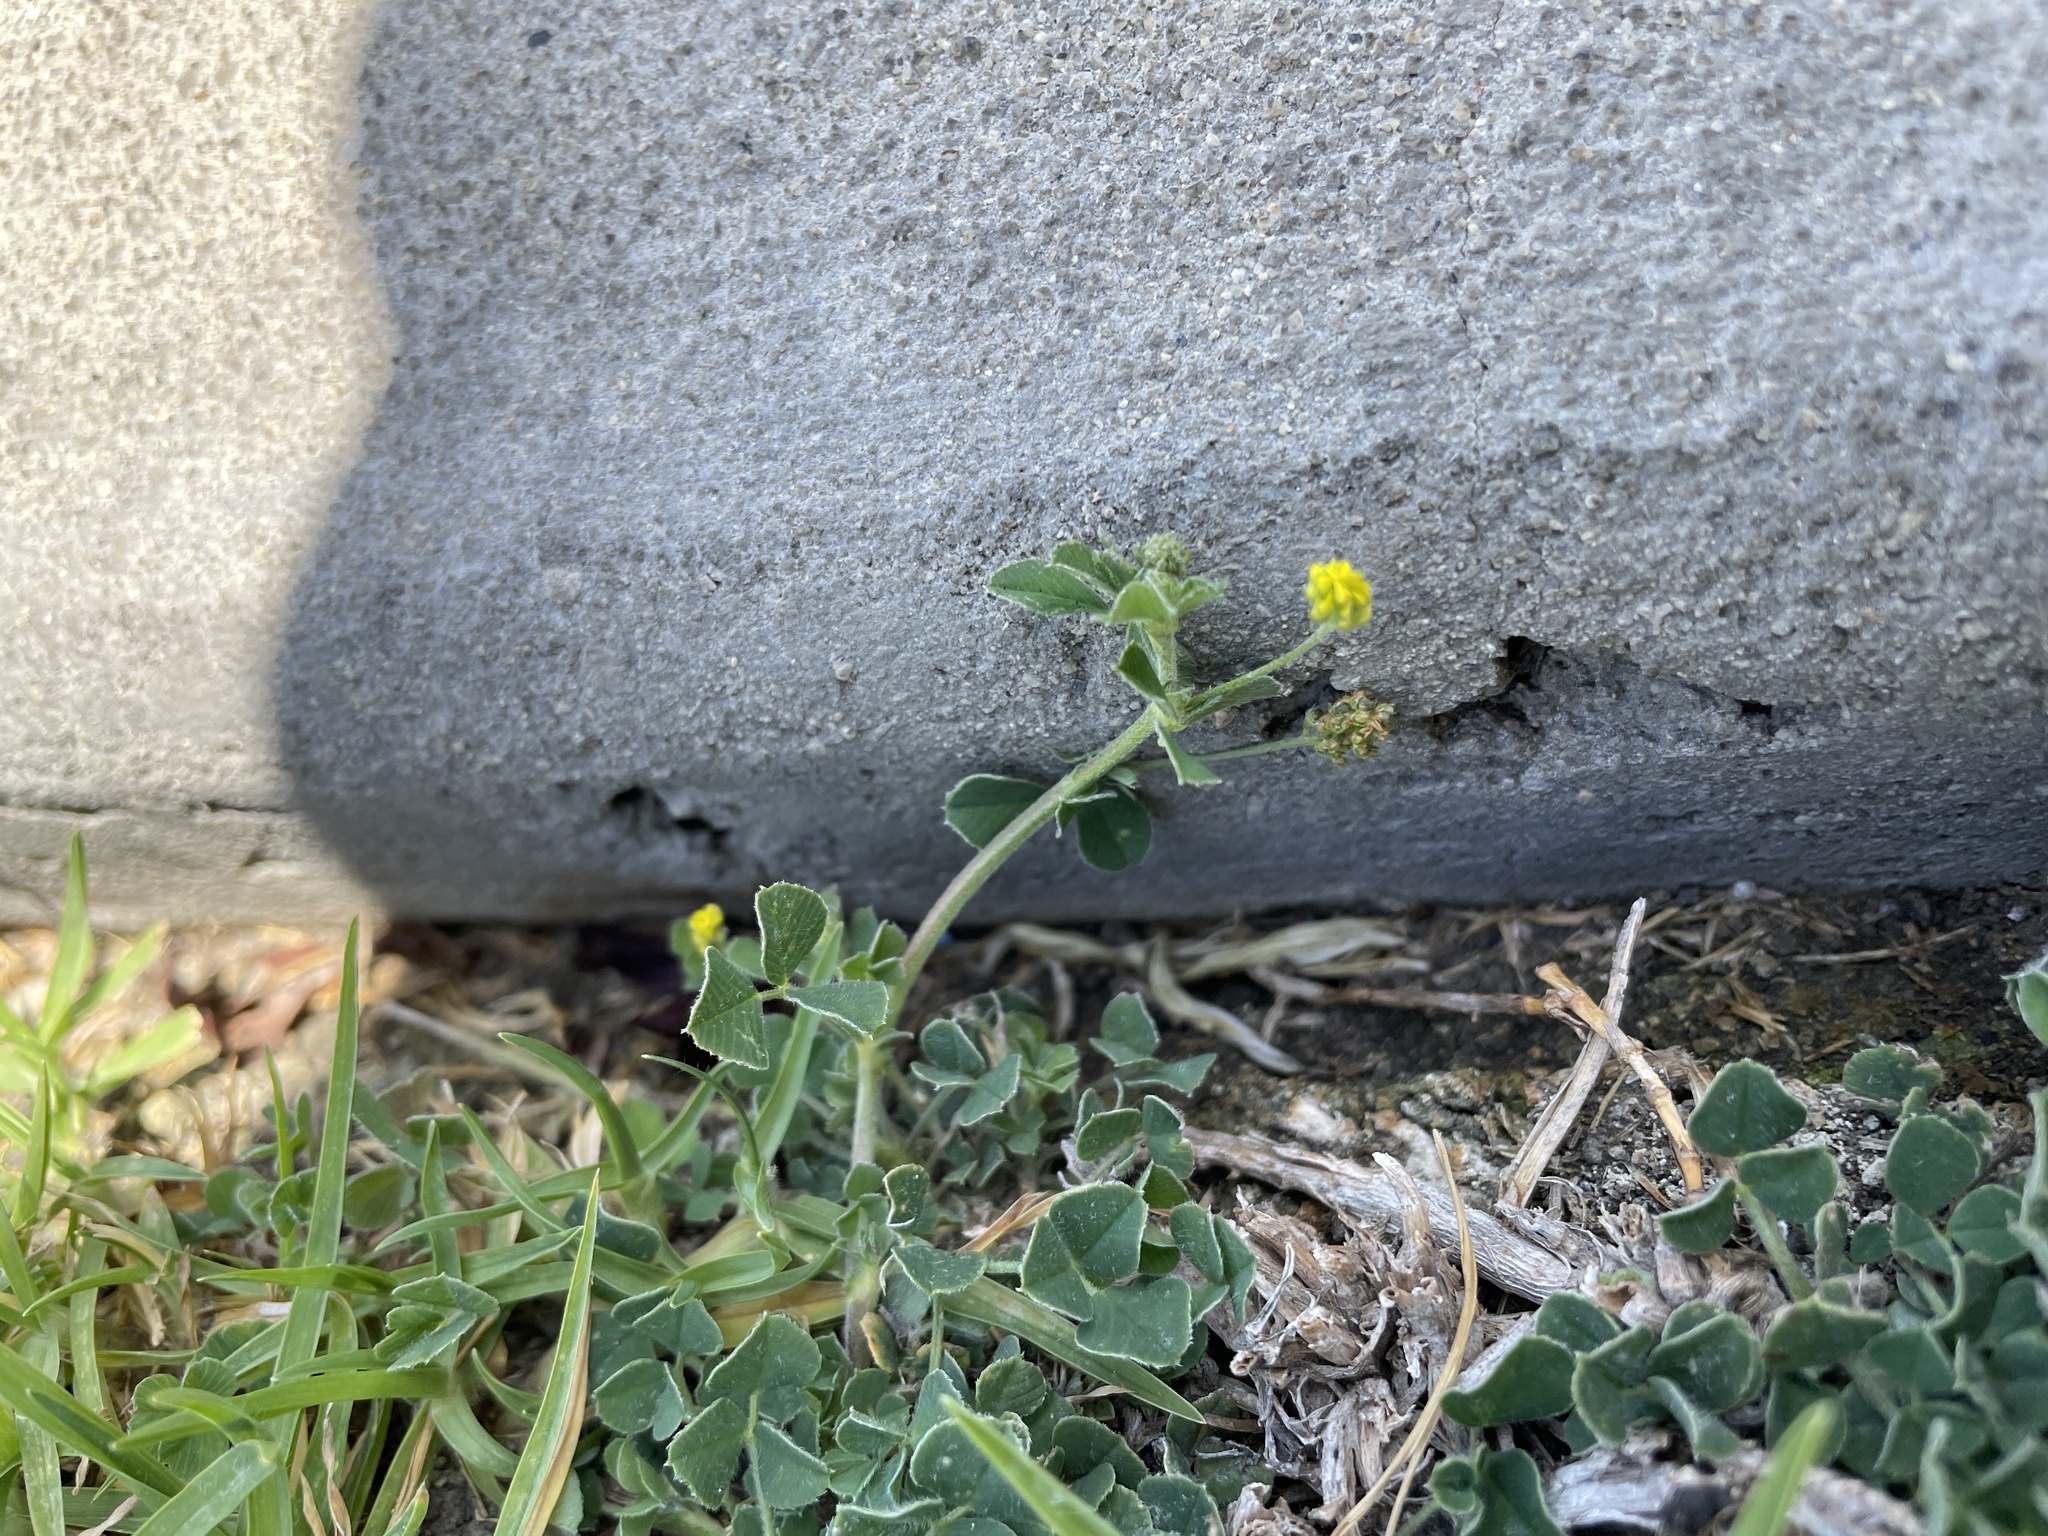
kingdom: Plantae
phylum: Tracheophyta
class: Magnoliopsida
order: Fabales
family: Fabaceae
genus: Medicago
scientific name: Medicago lupulina
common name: Black medick
